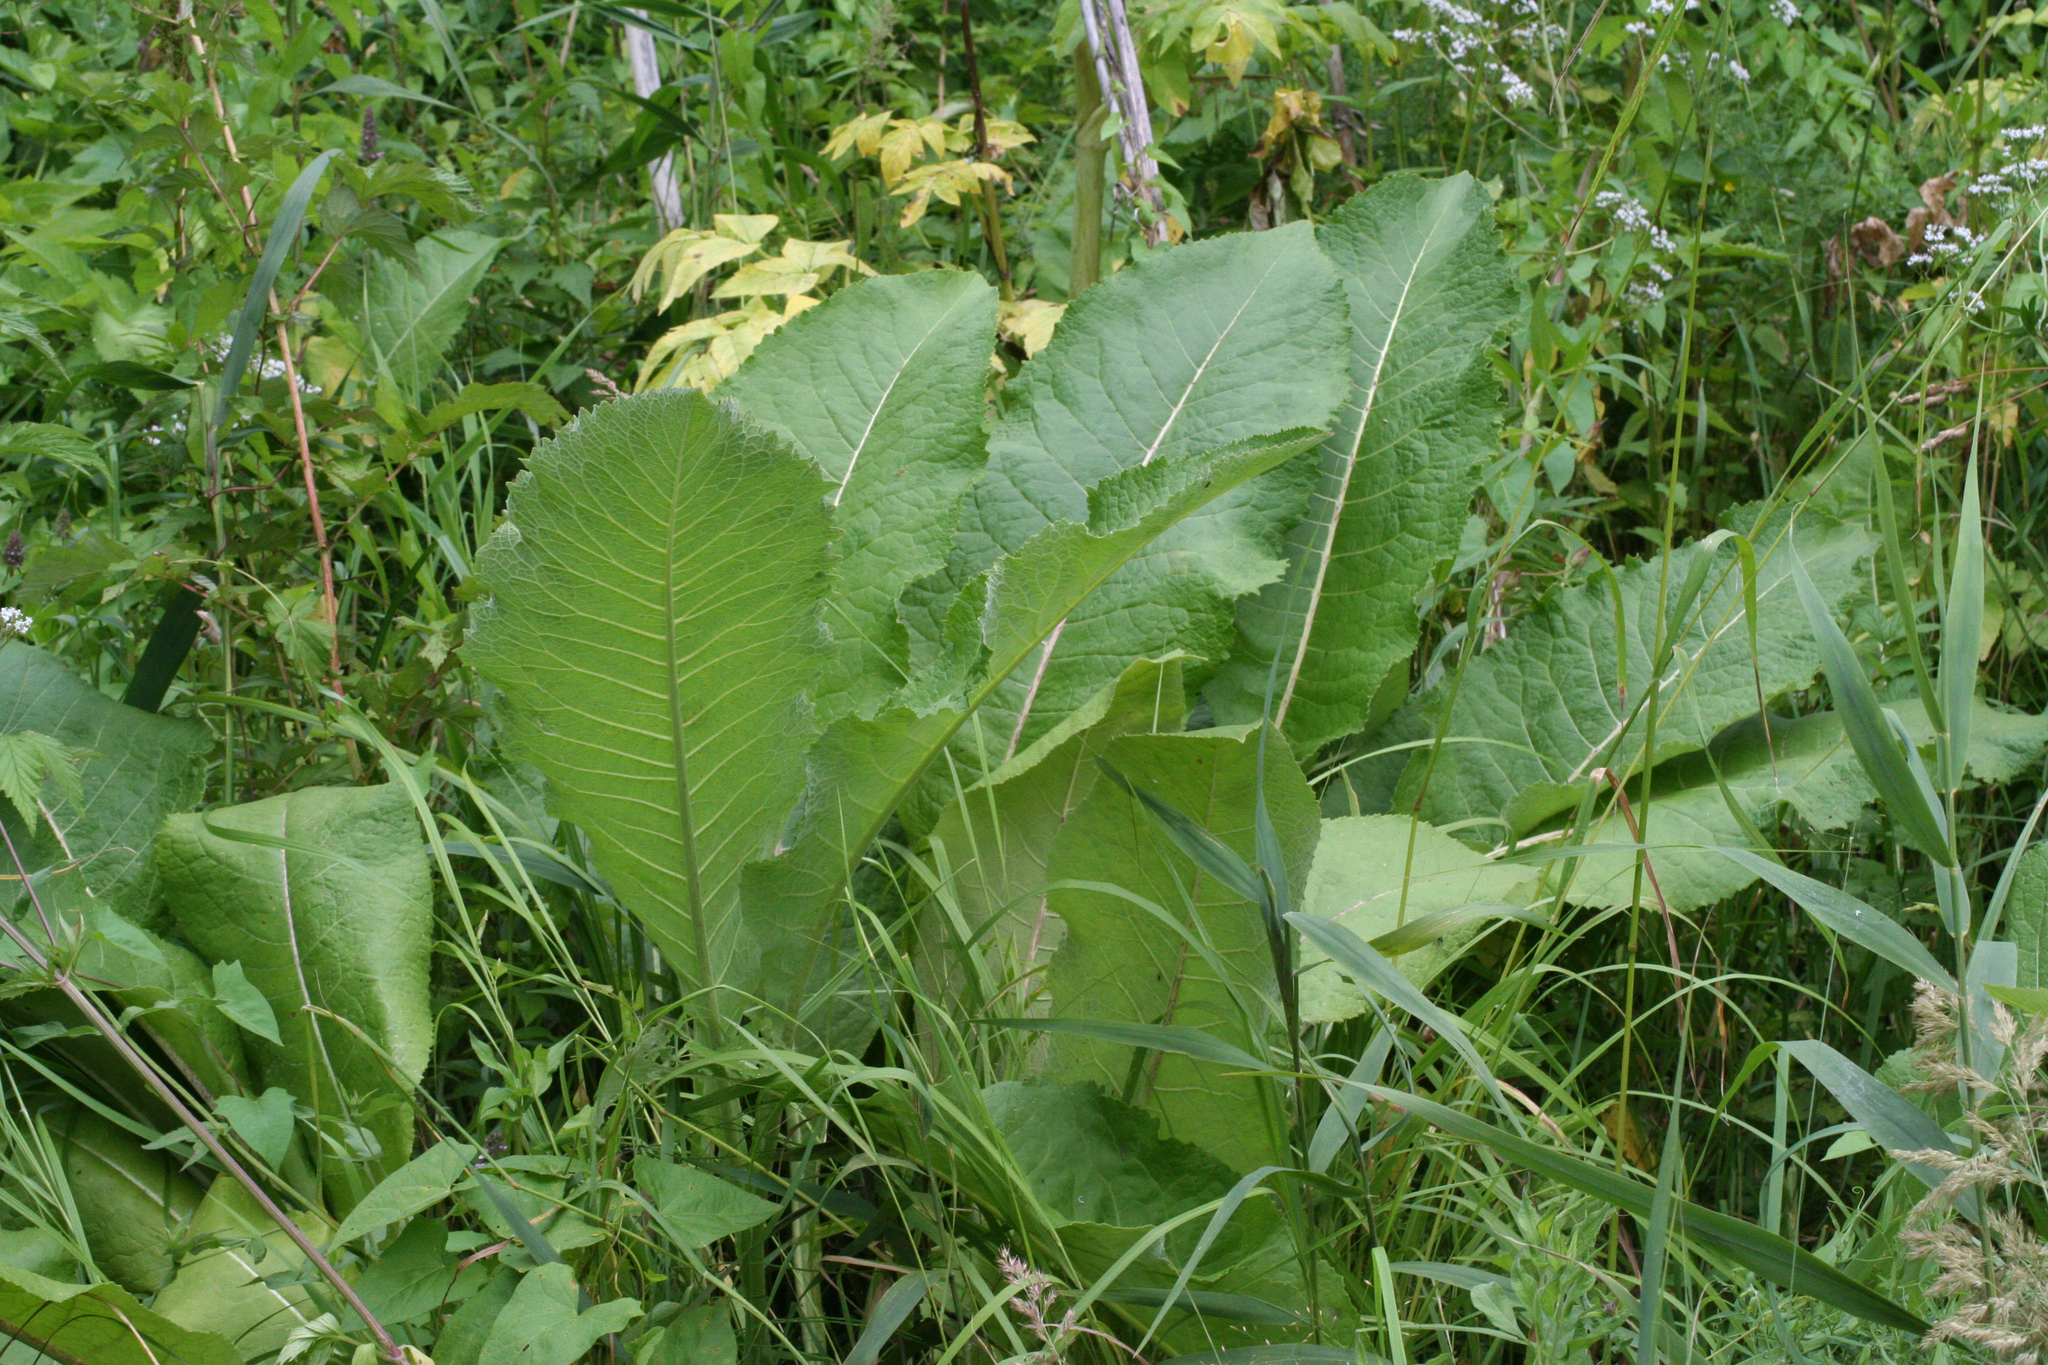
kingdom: Plantae
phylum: Tracheophyta
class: Magnoliopsida
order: Asterales
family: Asteraceae
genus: Inula
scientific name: Inula helenium
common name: Elecampane
